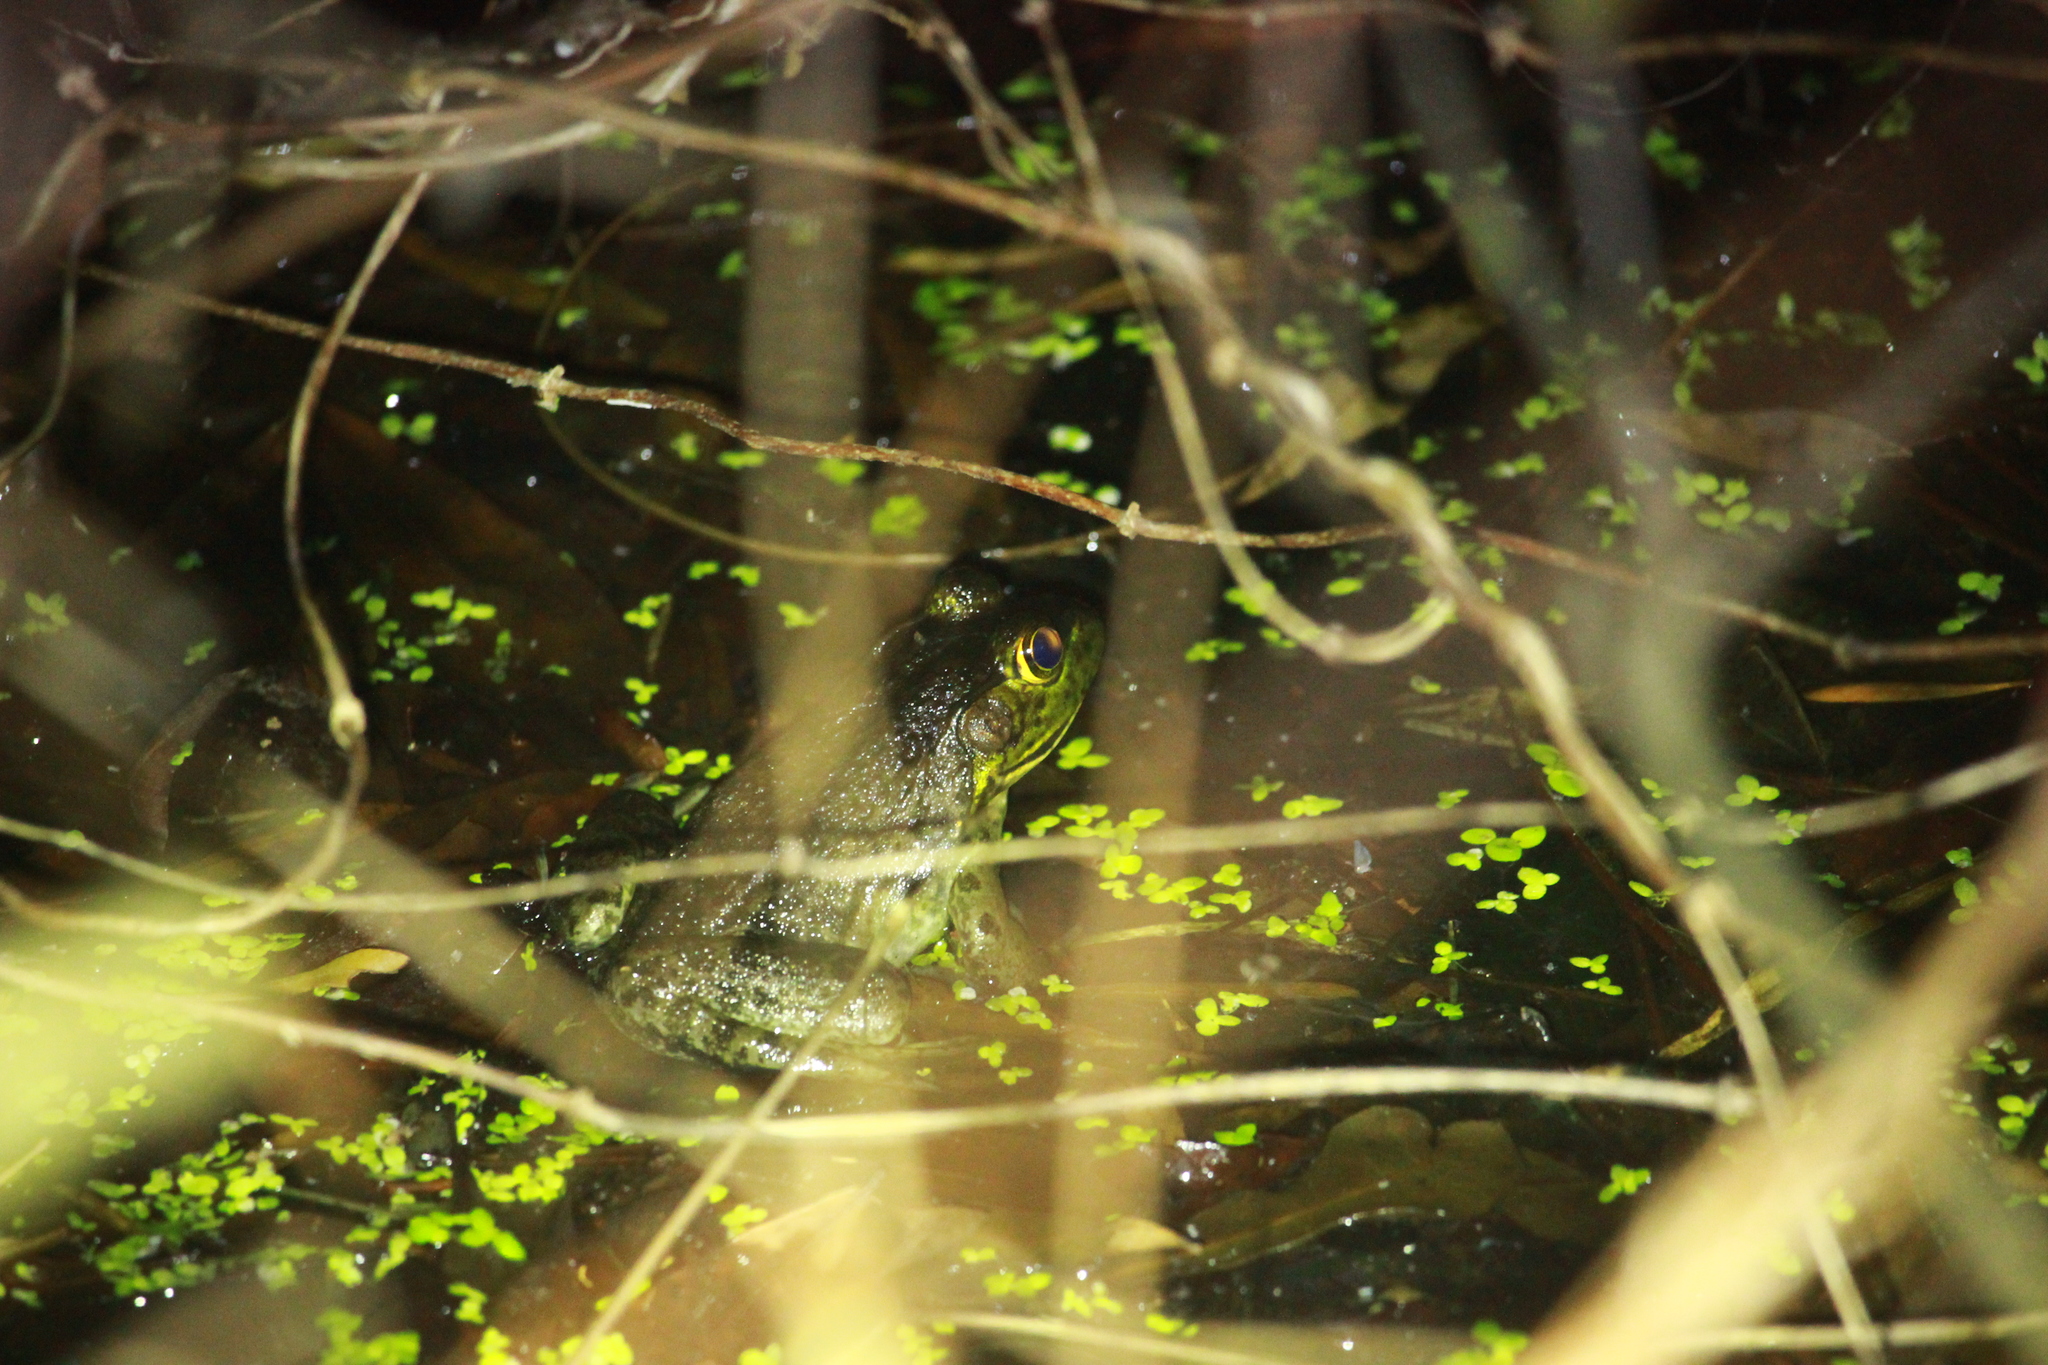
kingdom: Animalia
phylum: Chordata
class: Amphibia
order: Anura
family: Ranidae
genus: Lithobates
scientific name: Lithobates catesbeianus
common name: American bullfrog
